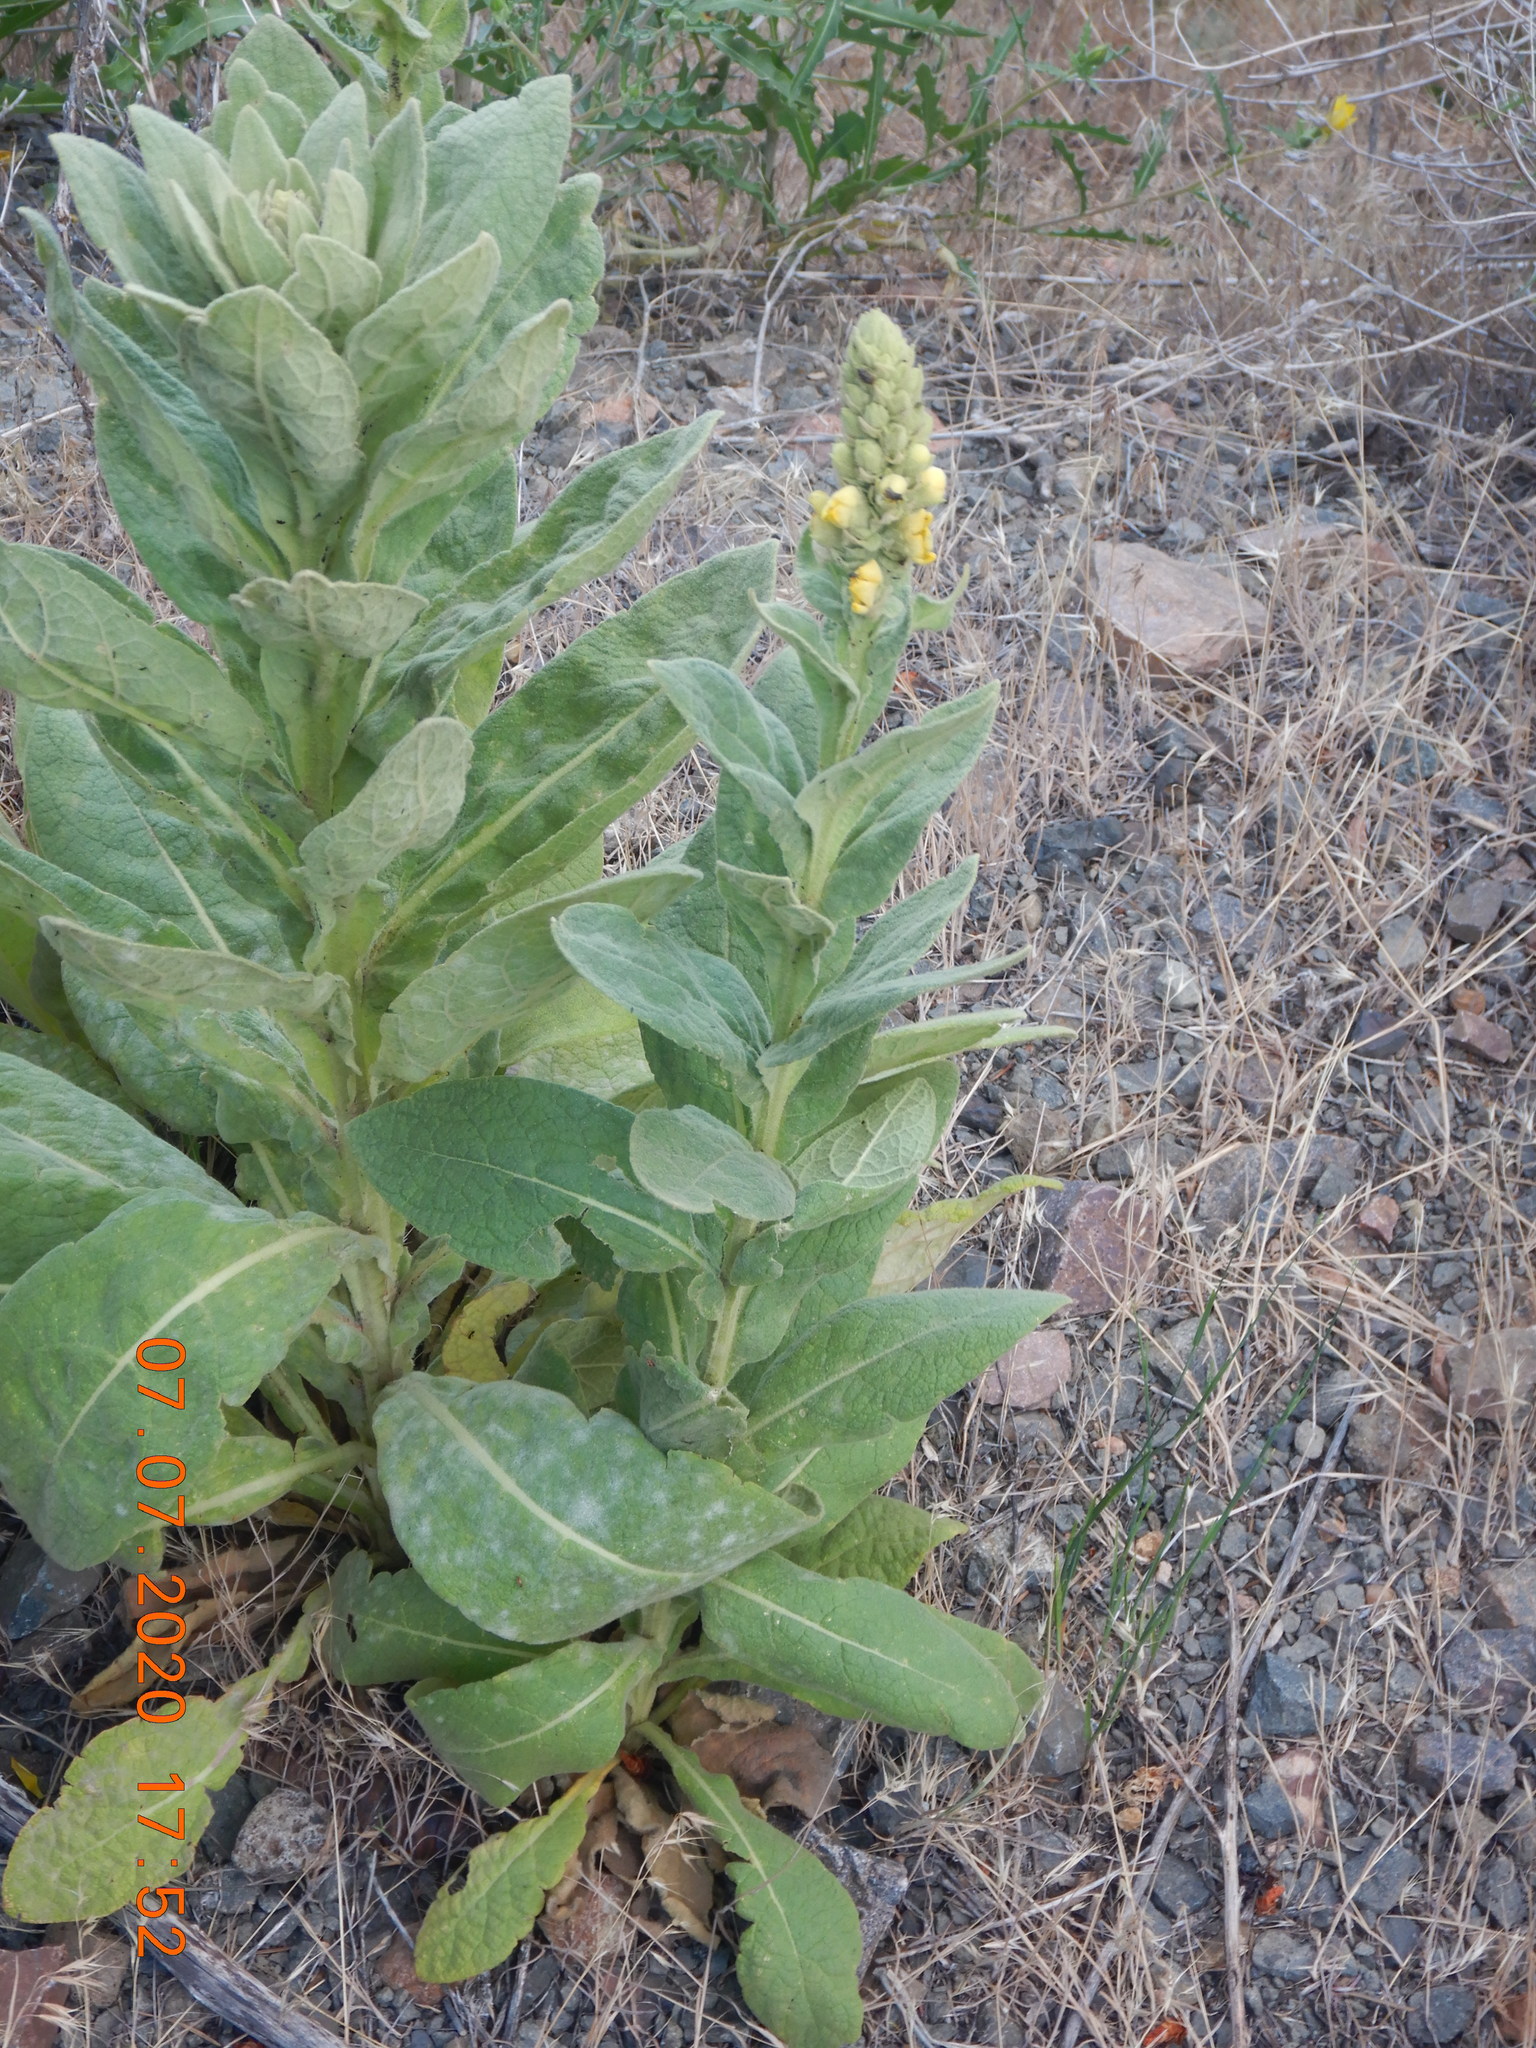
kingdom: Plantae
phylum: Tracheophyta
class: Magnoliopsida
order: Lamiales
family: Scrophulariaceae
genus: Verbascum
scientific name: Verbascum thapsus
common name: Common mullein
